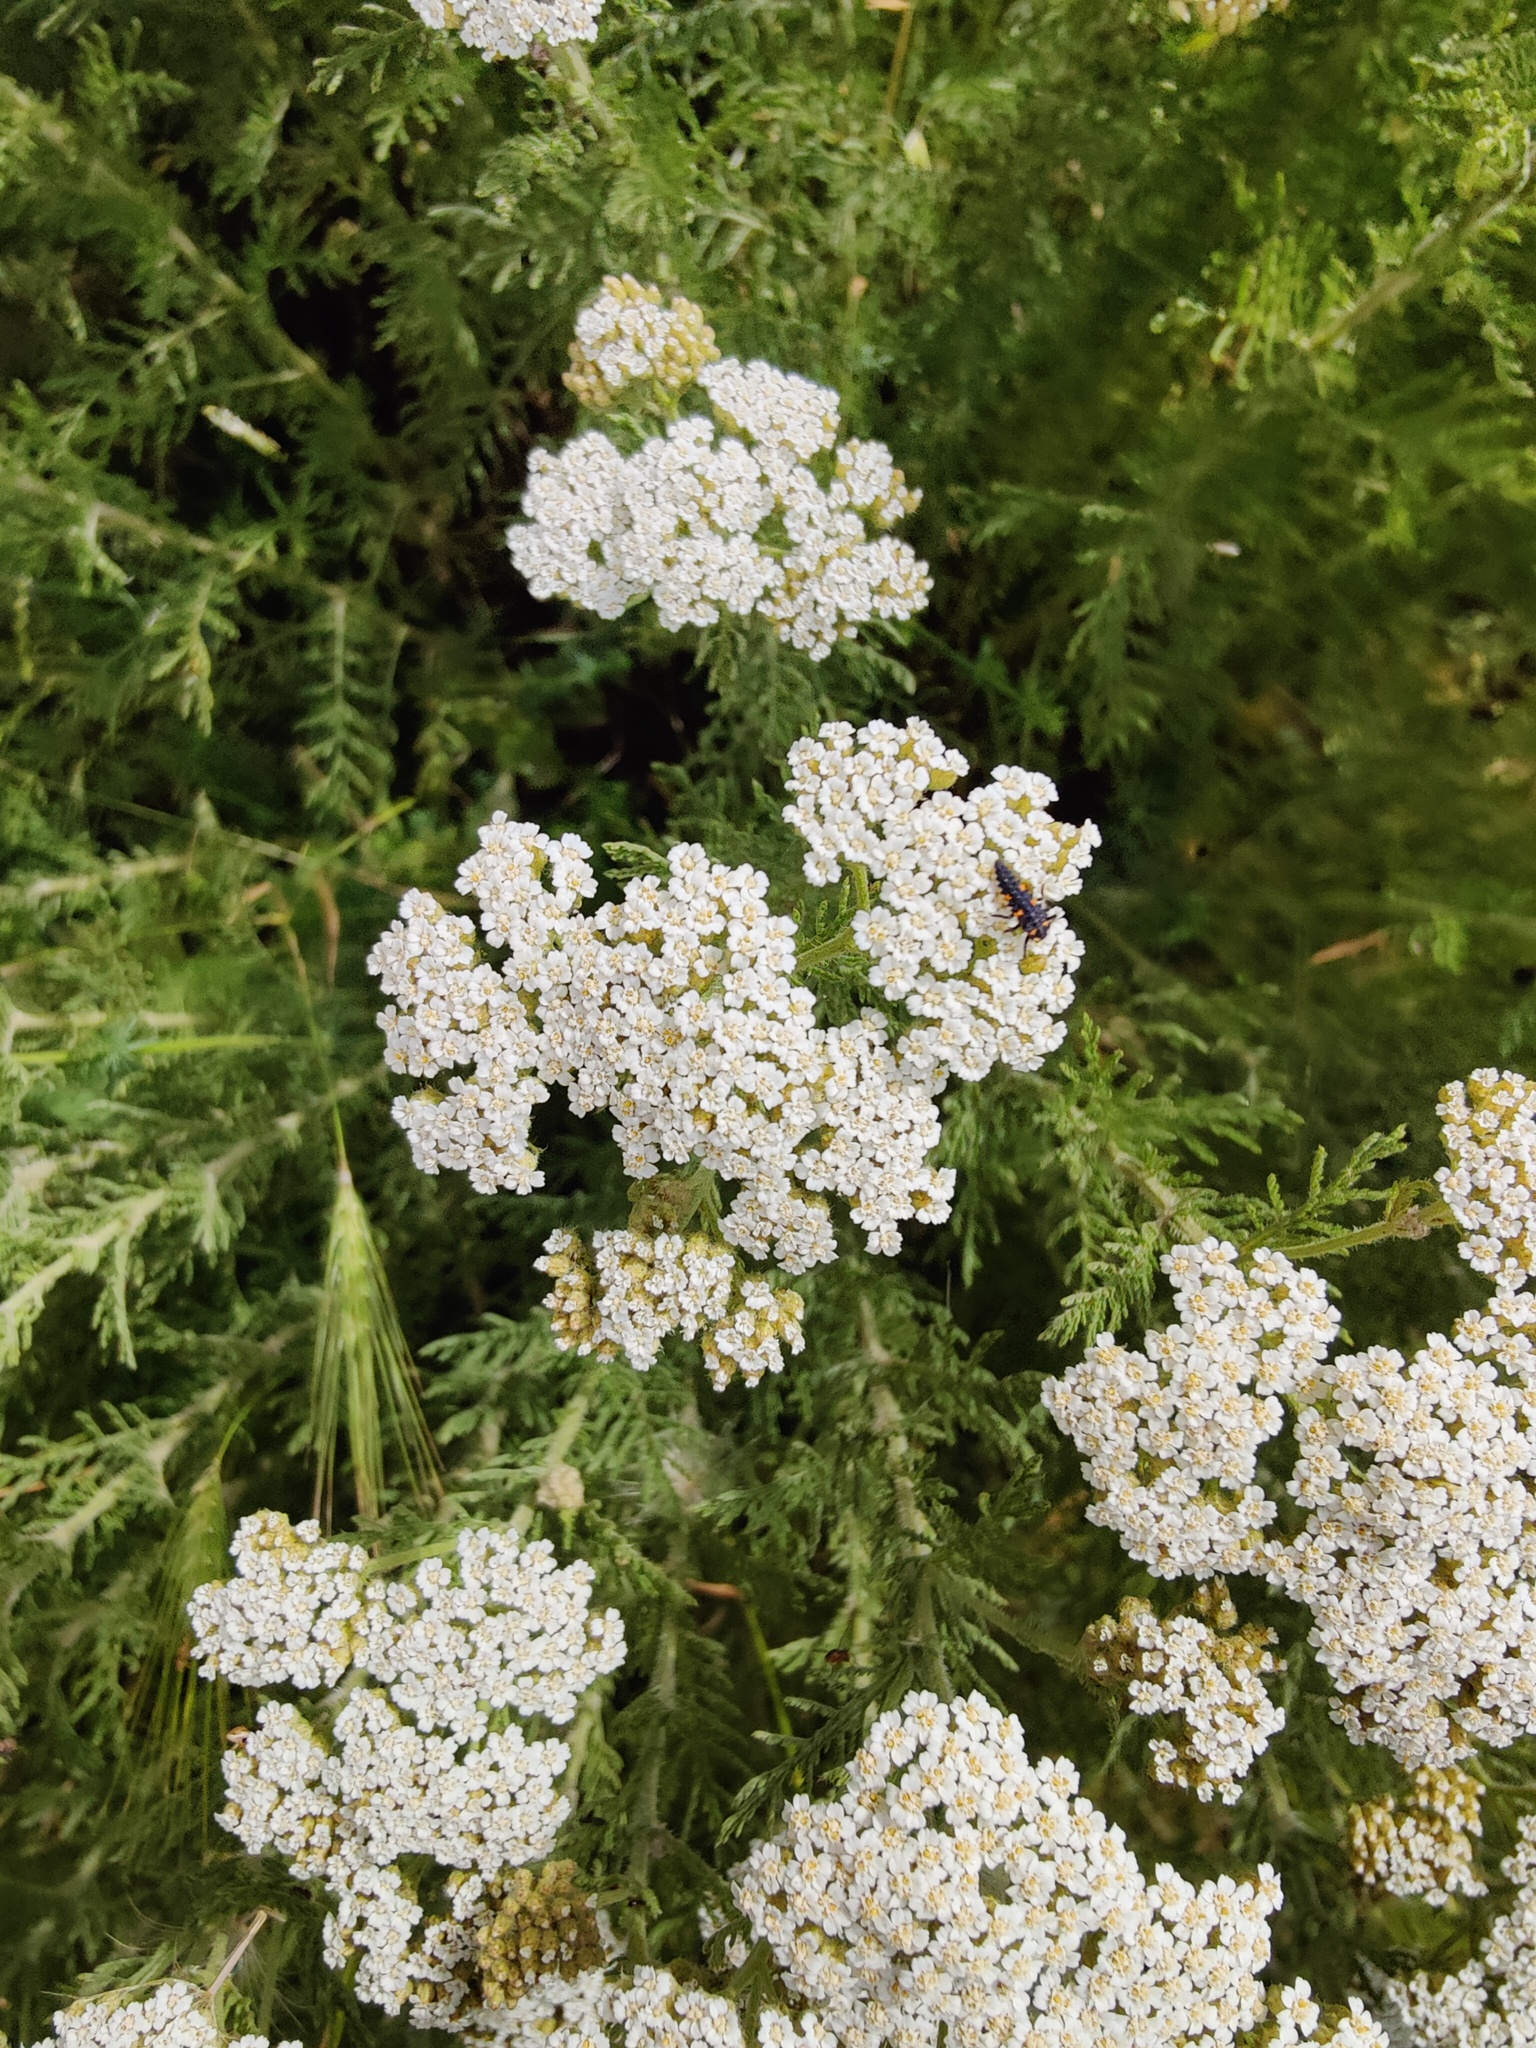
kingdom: Plantae
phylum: Tracheophyta
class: Magnoliopsida
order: Asterales
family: Asteraceae
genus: Achillea
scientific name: Achillea nobilis
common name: Noble yarrow
